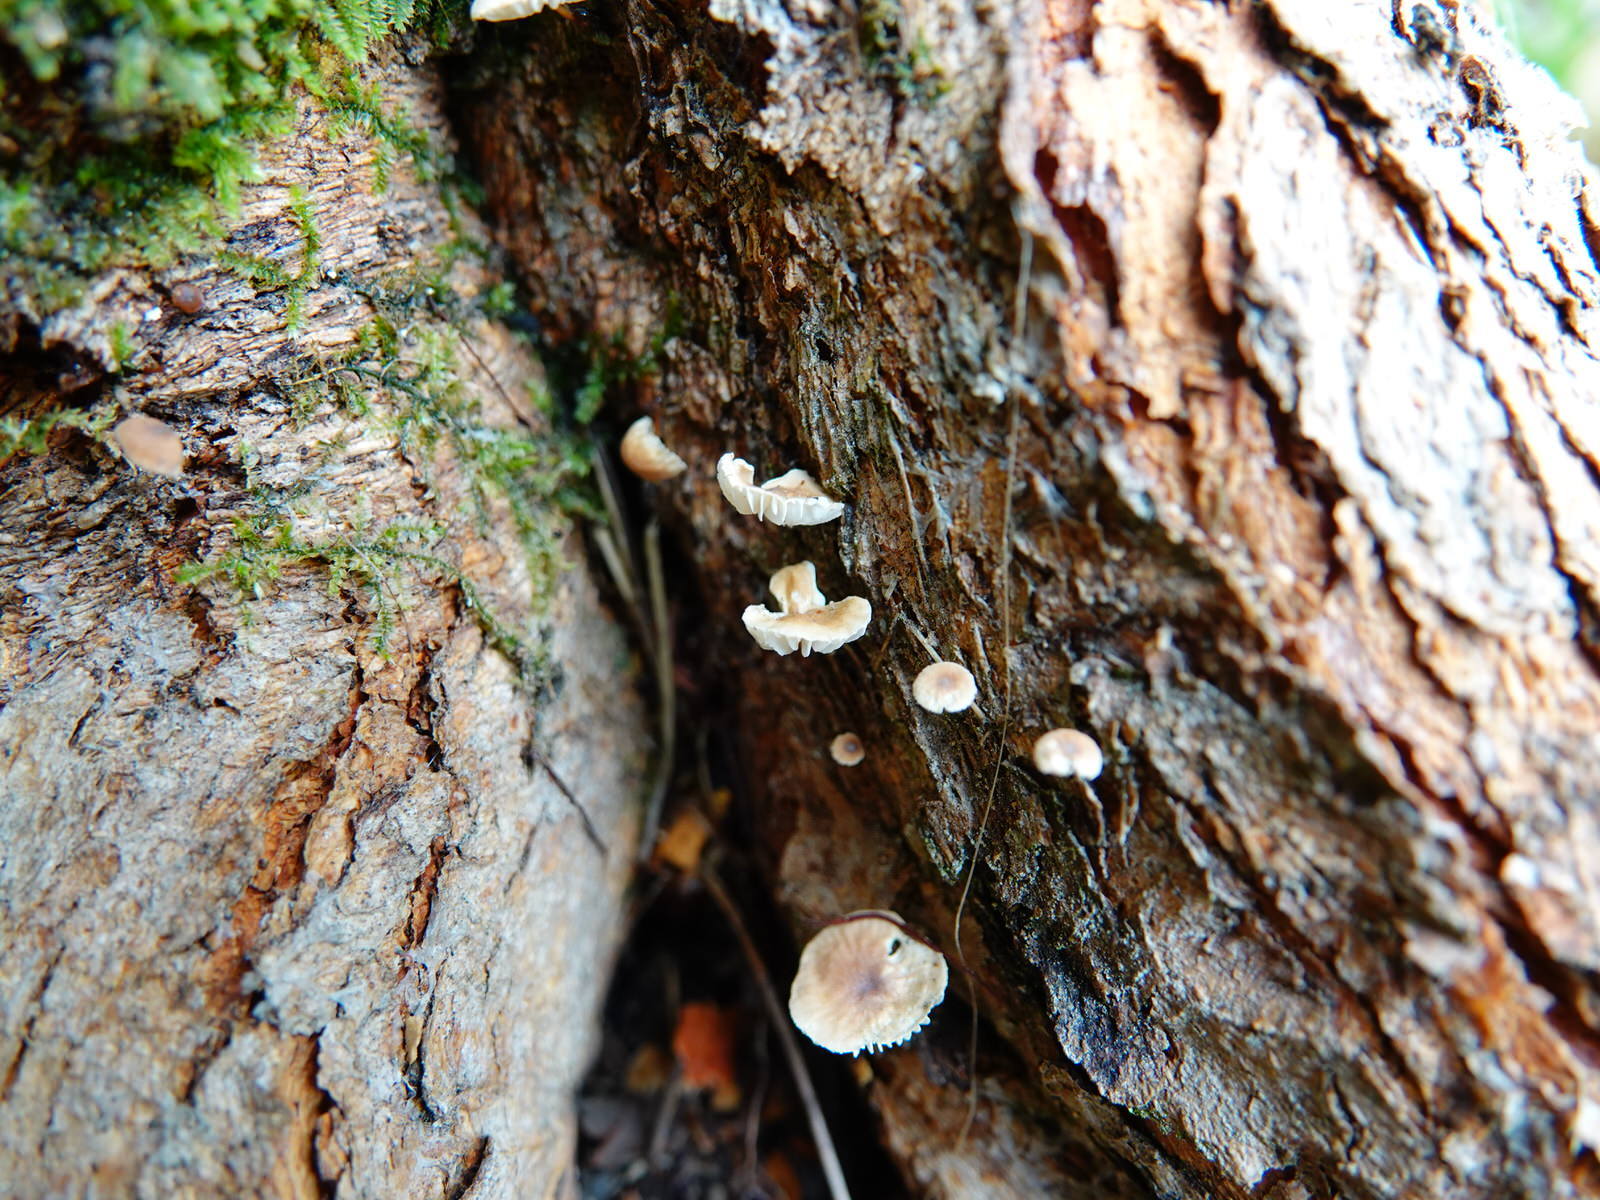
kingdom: Fungi
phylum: Basidiomycota
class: Agaricomycetes
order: Agaricales
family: Omphalotaceae
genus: Mycetinis
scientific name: Mycetinis curraniae
